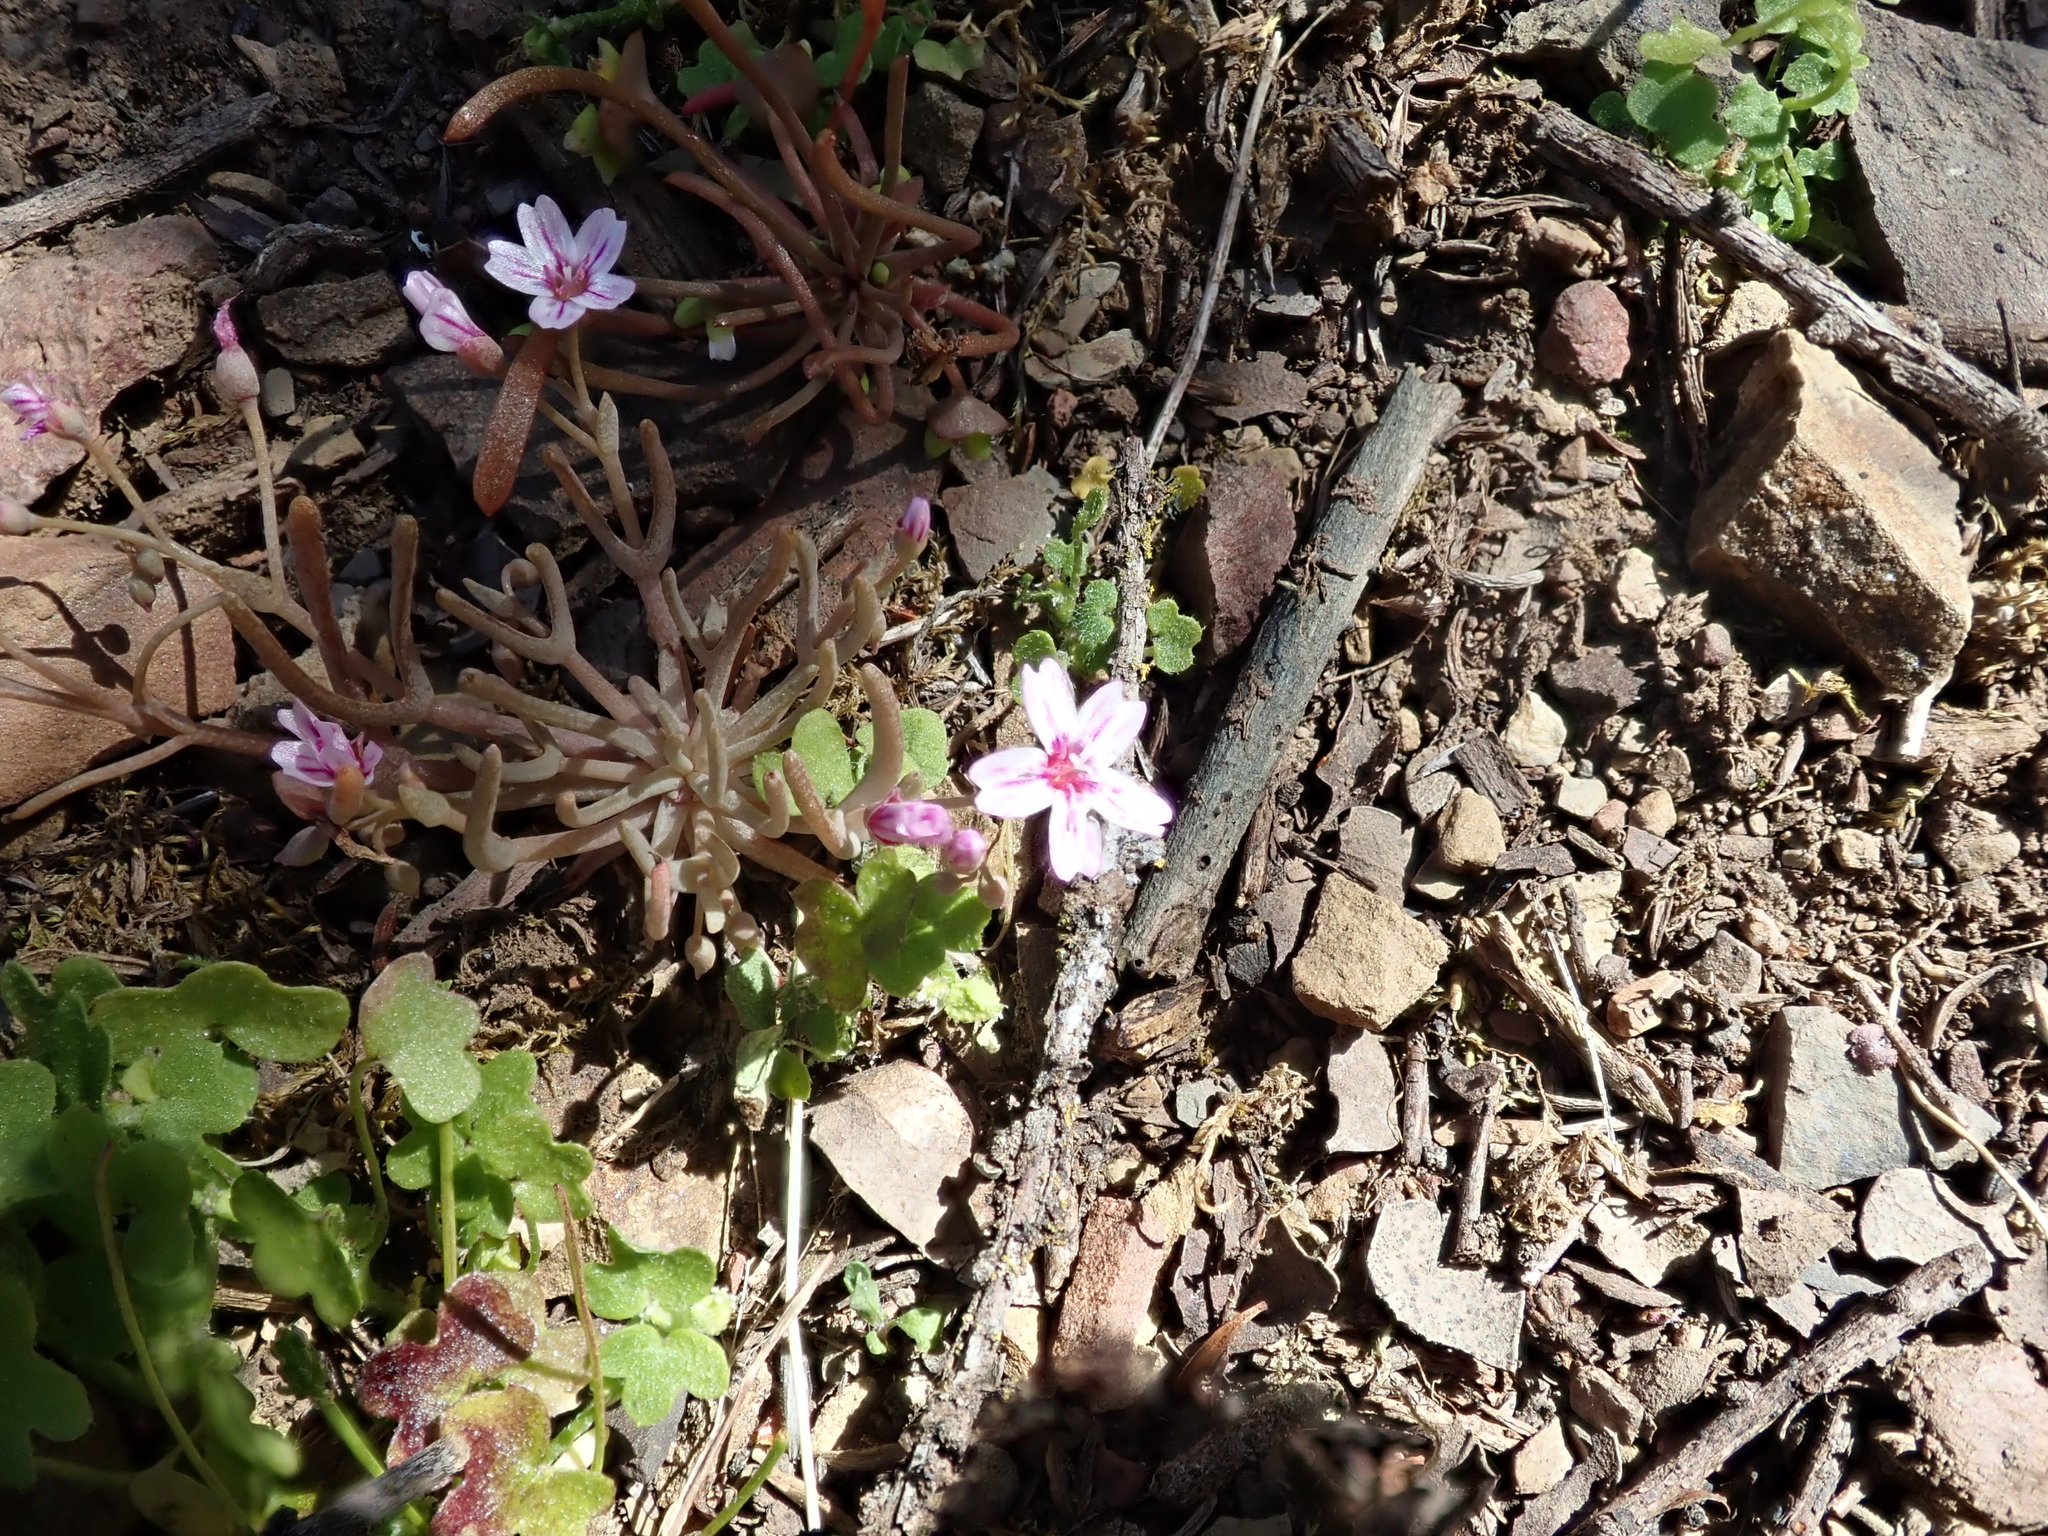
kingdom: Plantae
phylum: Tracheophyta
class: Magnoliopsida
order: Caryophyllales
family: Montiaceae
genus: Claytonia
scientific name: Claytonia gypsophiloides
